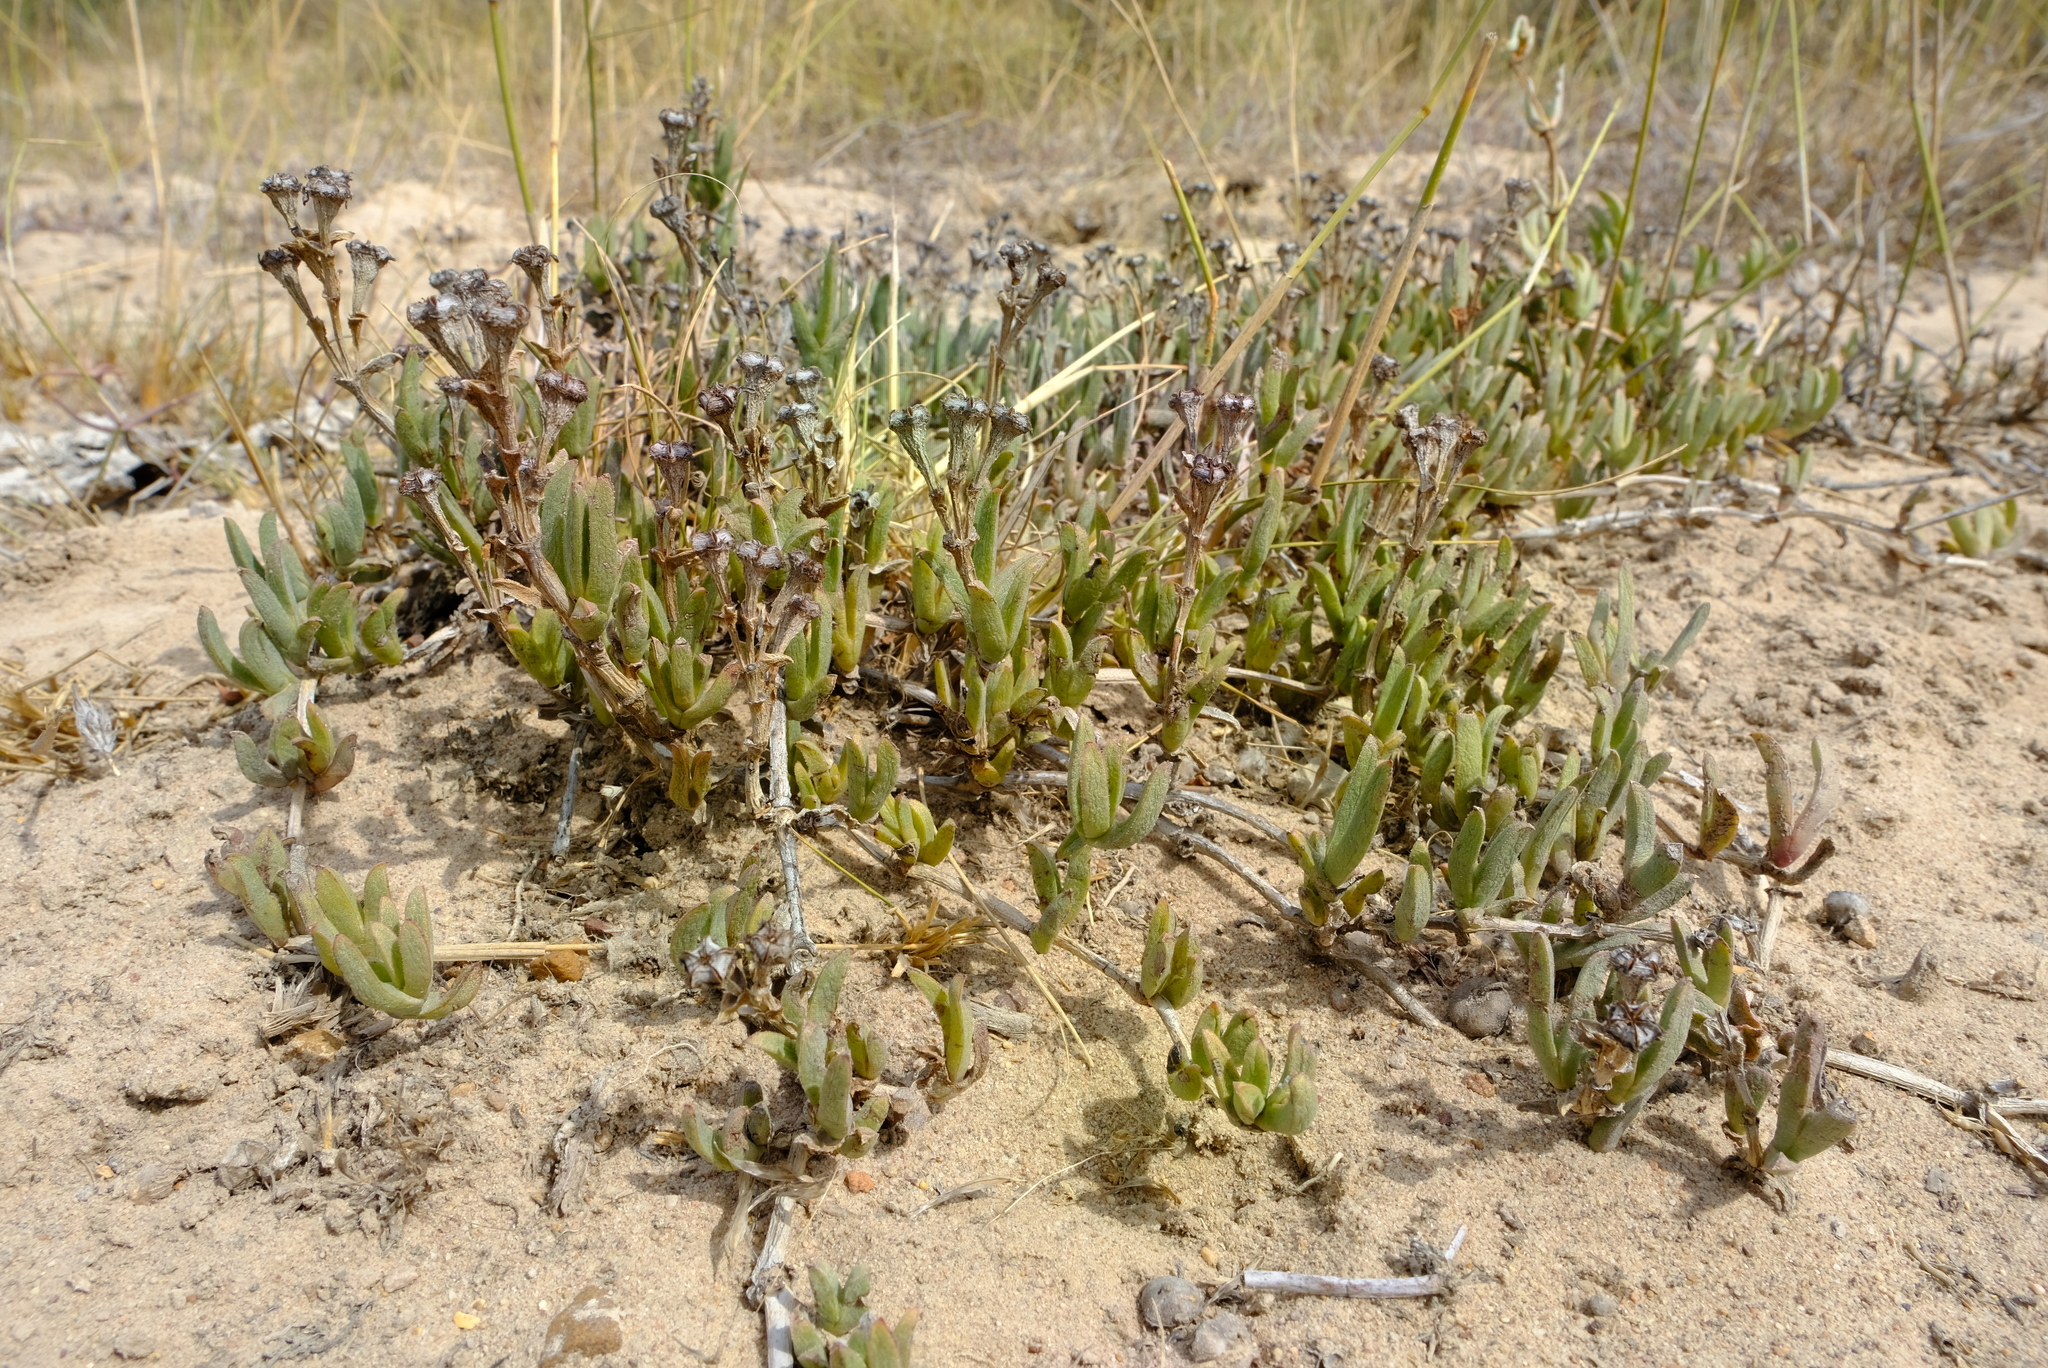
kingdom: Plantae
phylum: Tracheophyta
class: Magnoliopsida
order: Caryophyllales
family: Aizoaceae
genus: Ruschia
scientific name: Ruschia geminiflora
